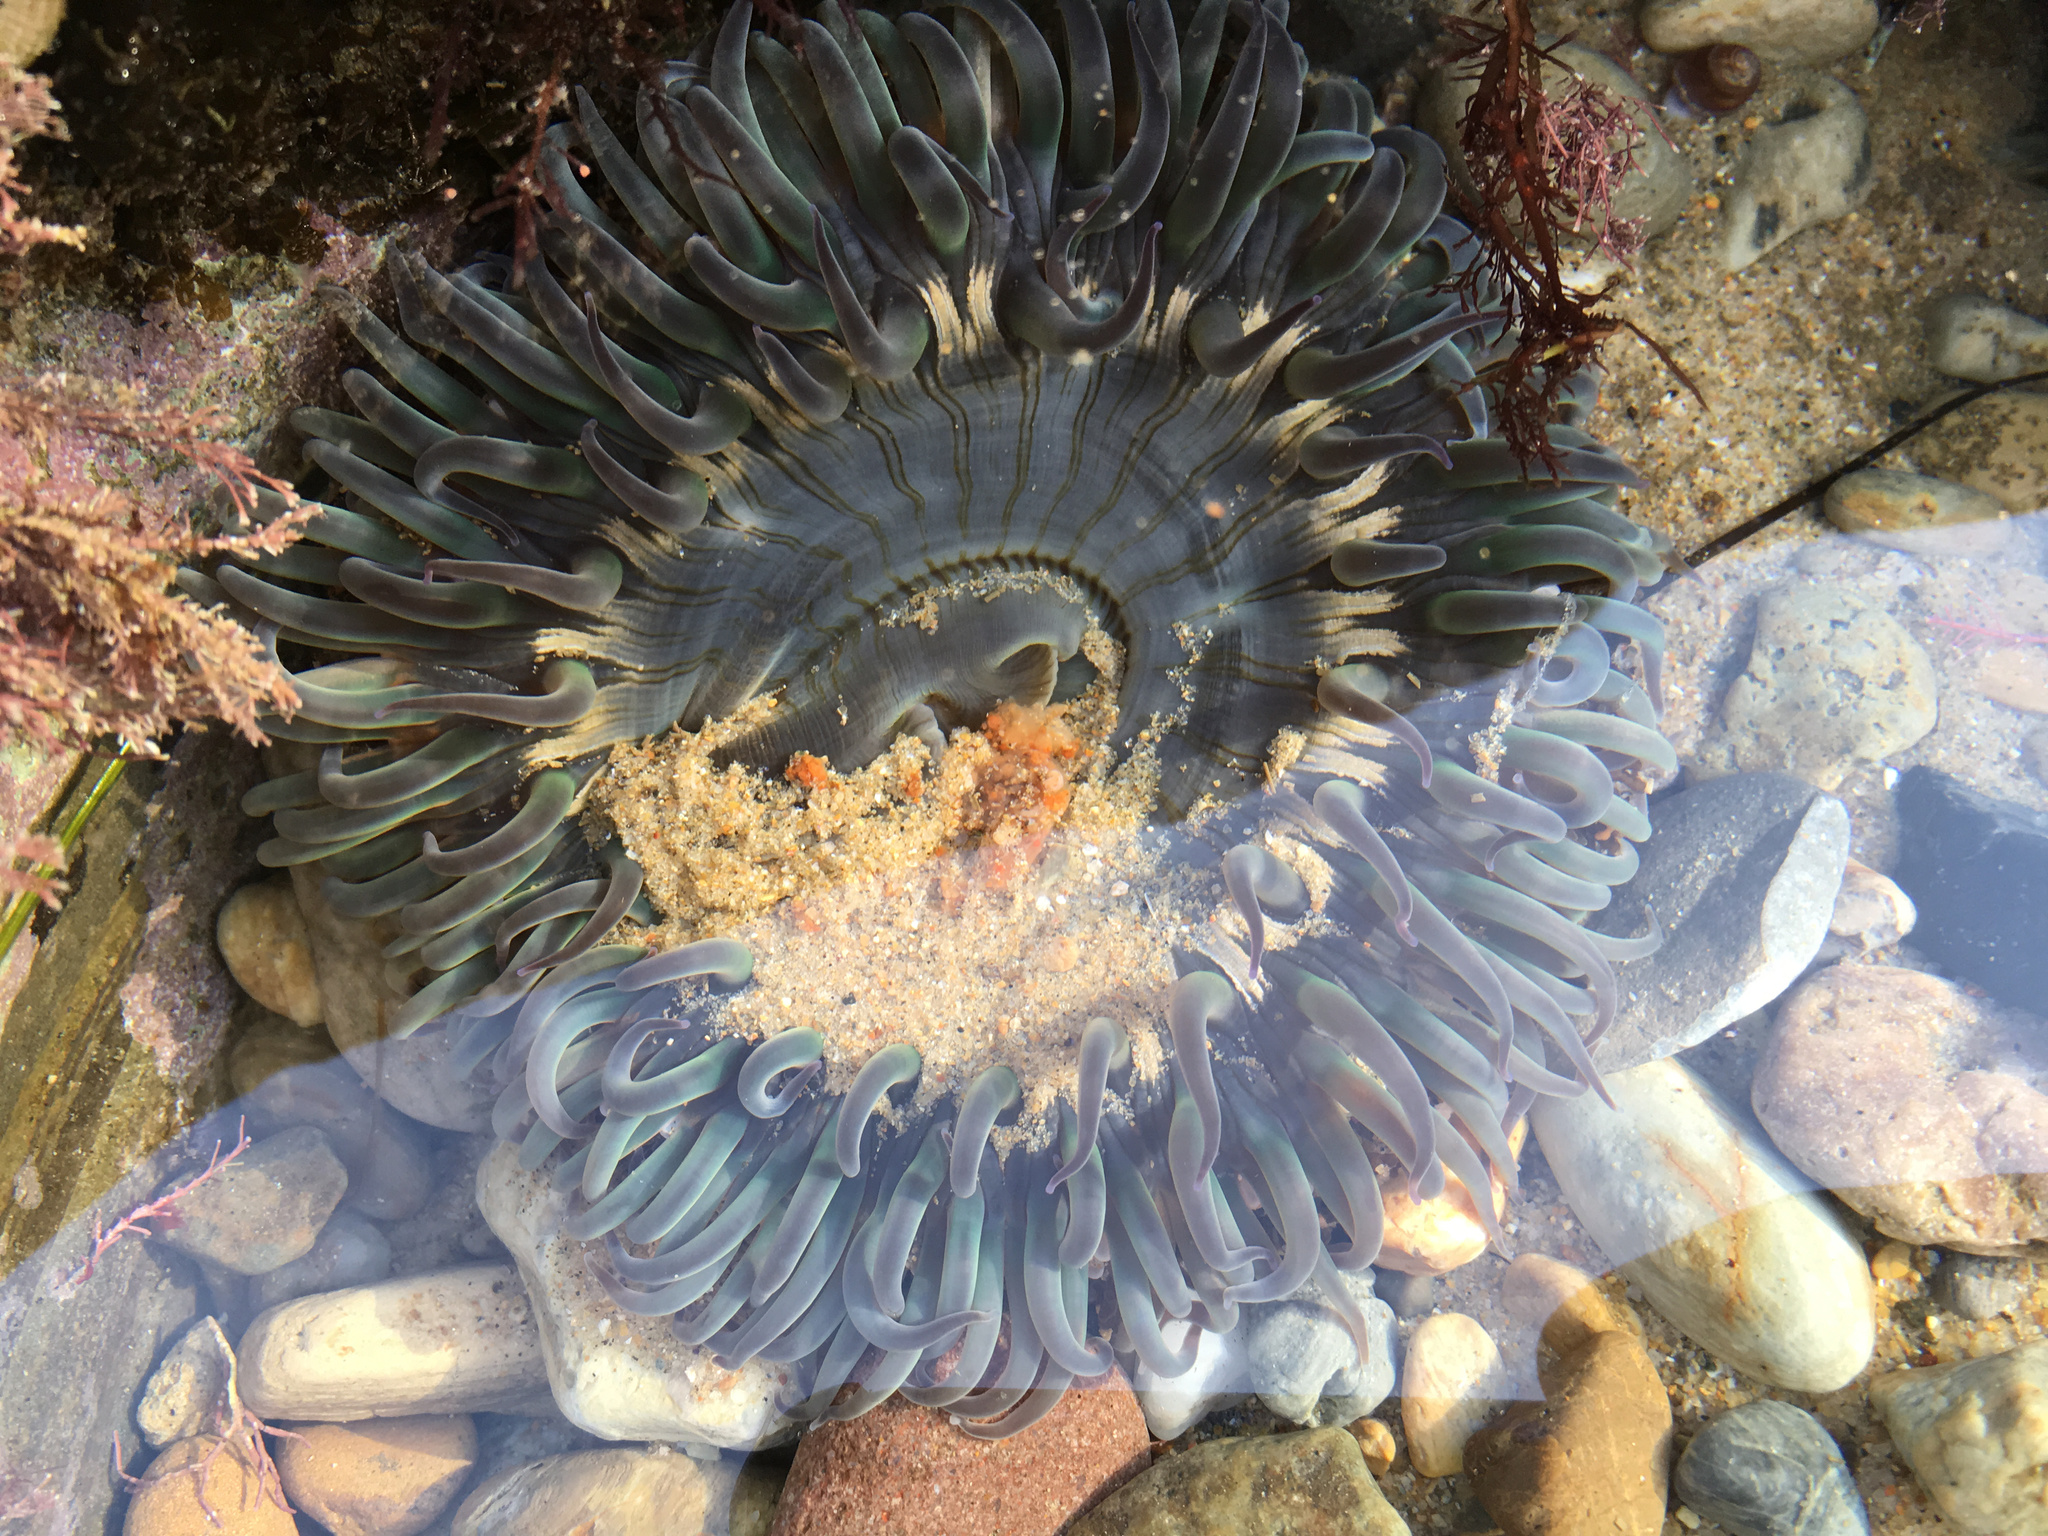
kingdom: Animalia
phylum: Cnidaria
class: Anthozoa
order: Actiniaria
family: Actiniidae
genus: Anthopleura
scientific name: Anthopleura sola
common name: Sun anemone
